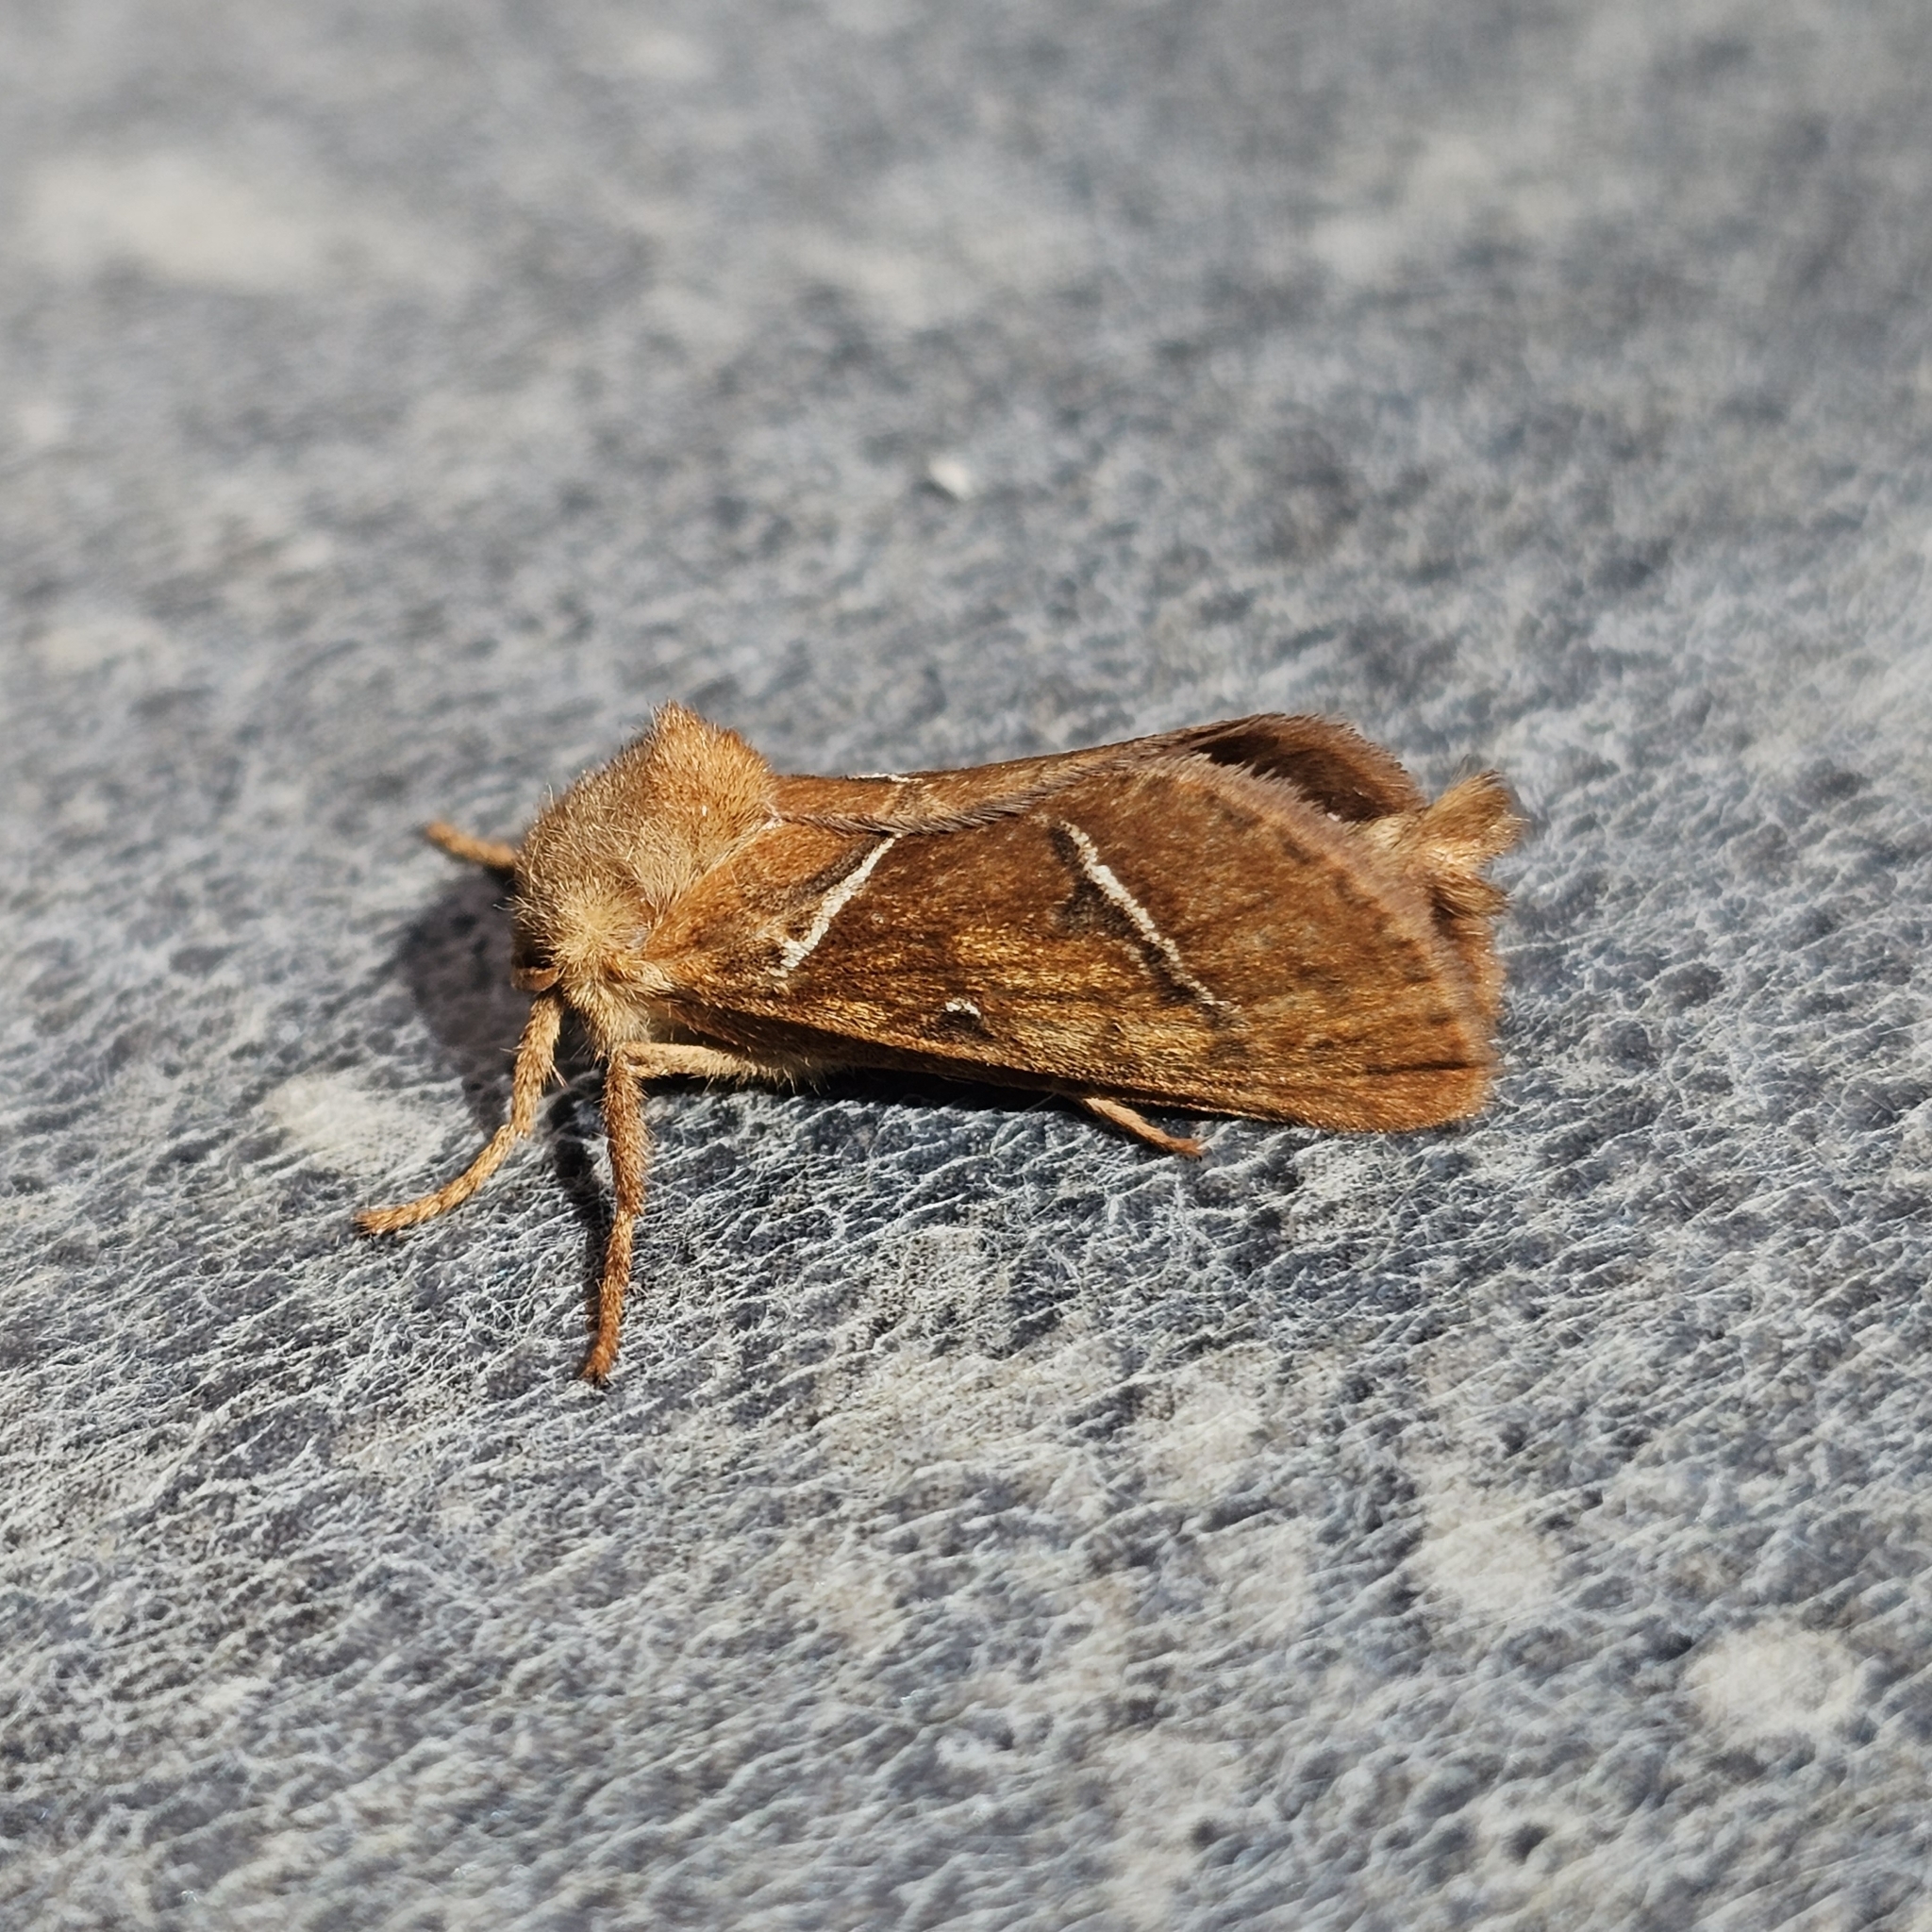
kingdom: Animalia
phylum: Arthropoda
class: Insecta
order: Lepidoptera
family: Hepialidae
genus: Triodia
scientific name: Triodia sylvina
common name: Orange swift
